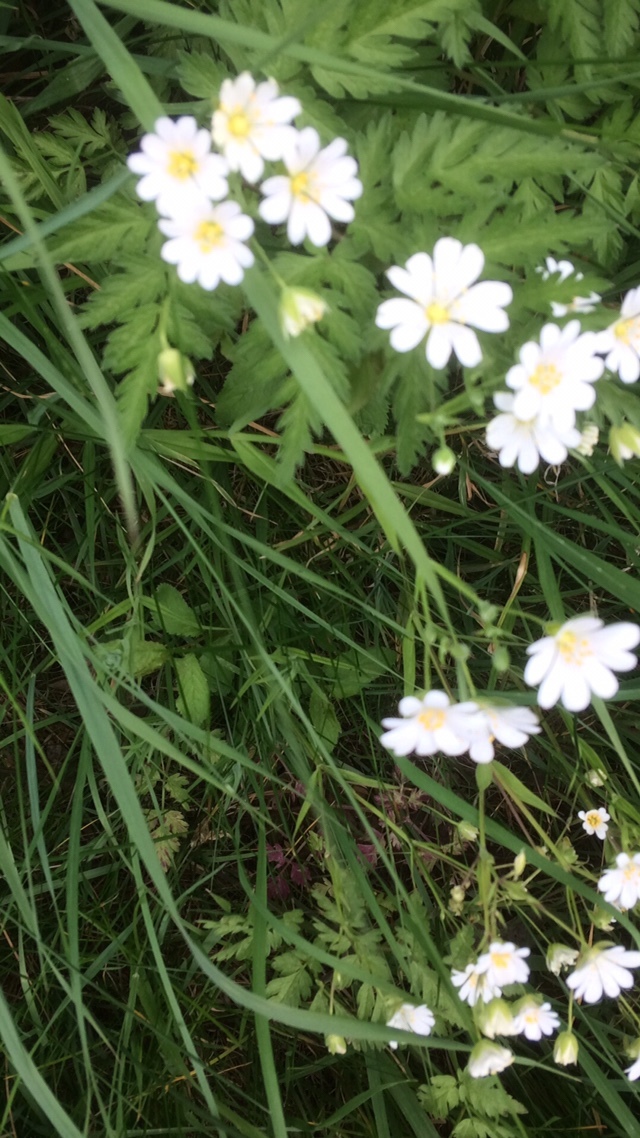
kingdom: Plantae
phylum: Tracheophyta
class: Magnoliopsida
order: Caryophyllales
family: Caryophyllaceae
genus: Rabelera
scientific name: Rabelera holostea
